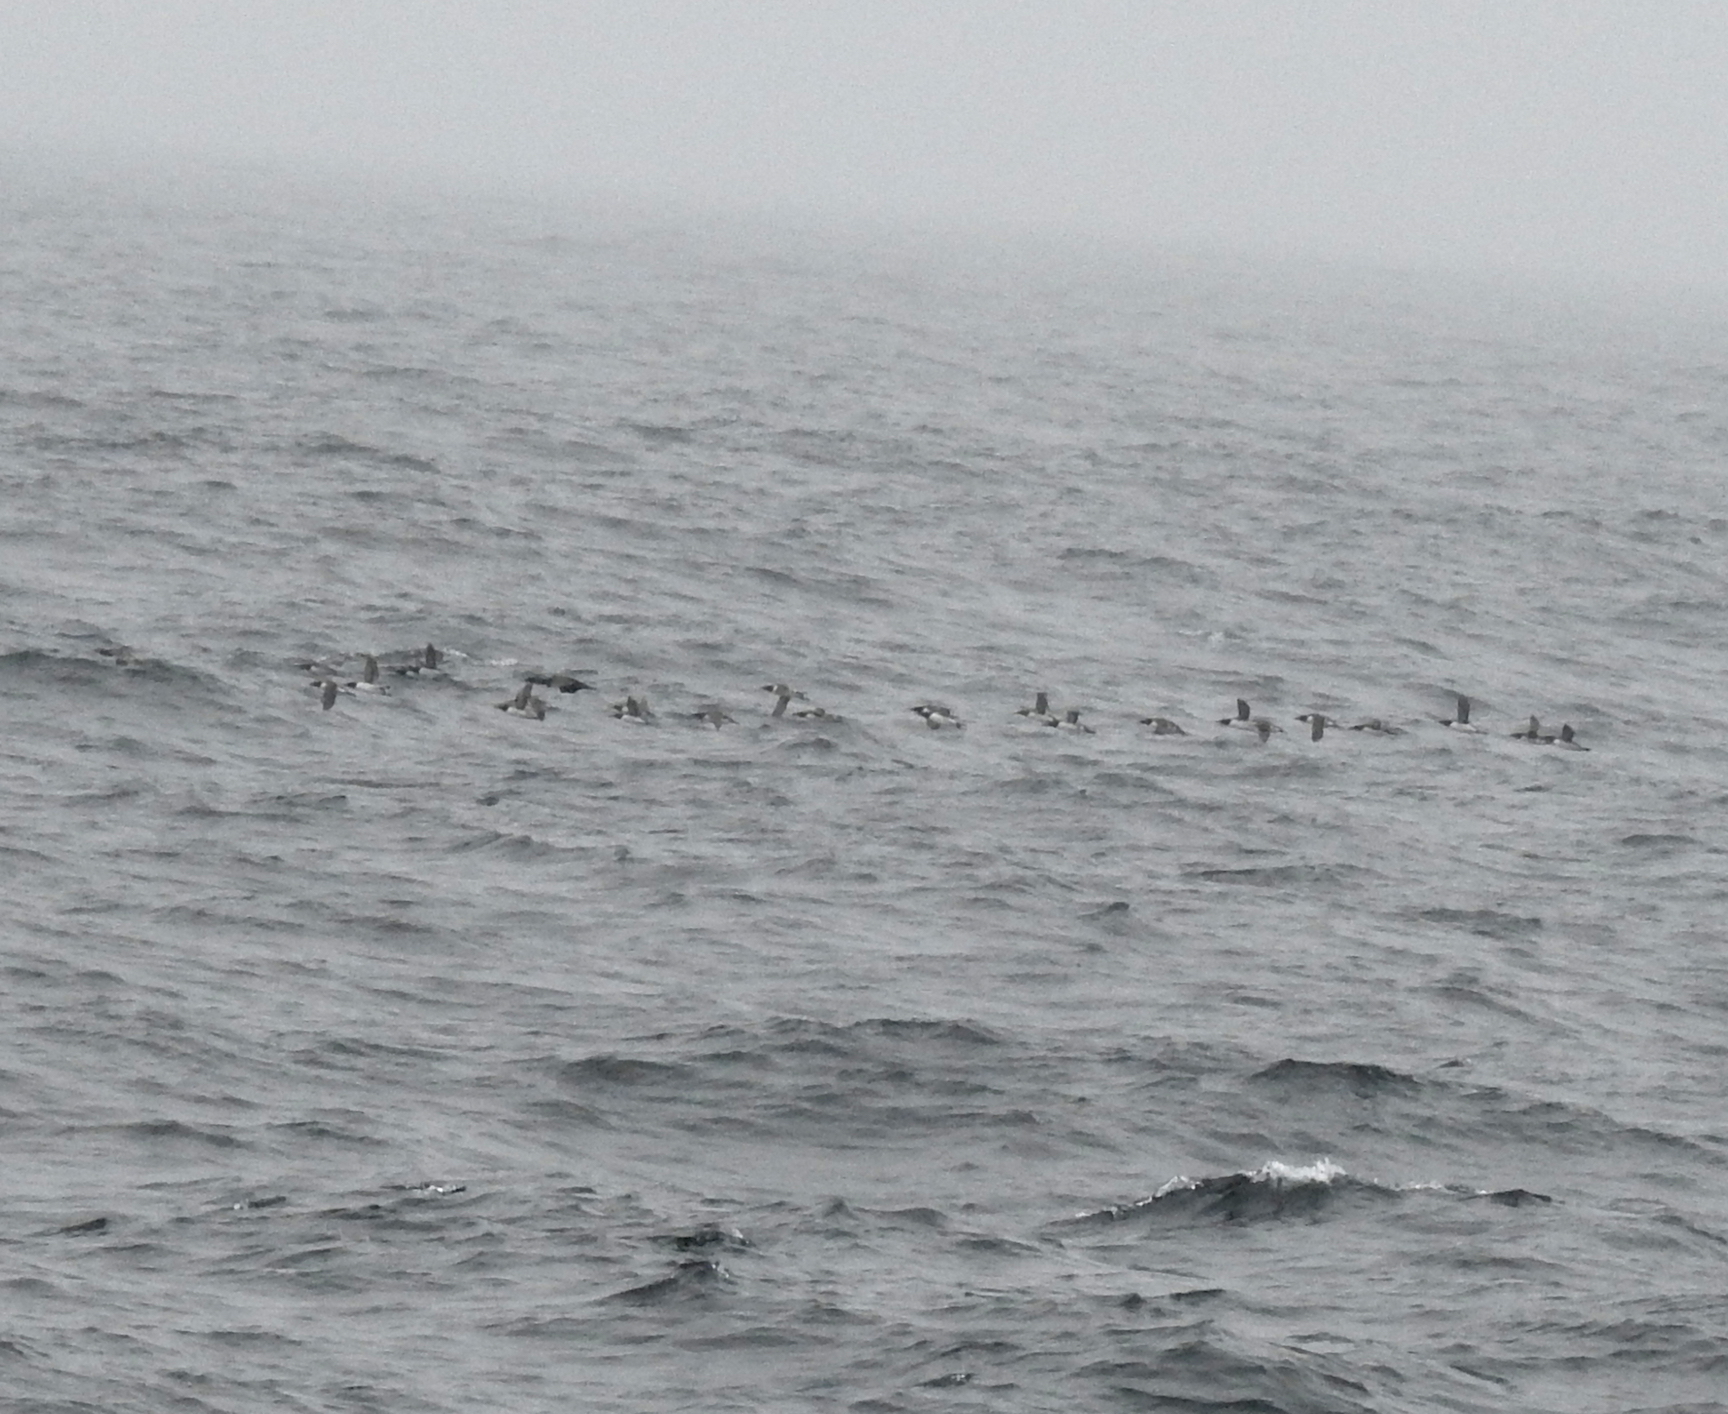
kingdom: Animalia
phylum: Chordata
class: Aves
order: Charadriiformes
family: Alcidae
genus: Uria
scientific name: Uria aalge
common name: Common murre
